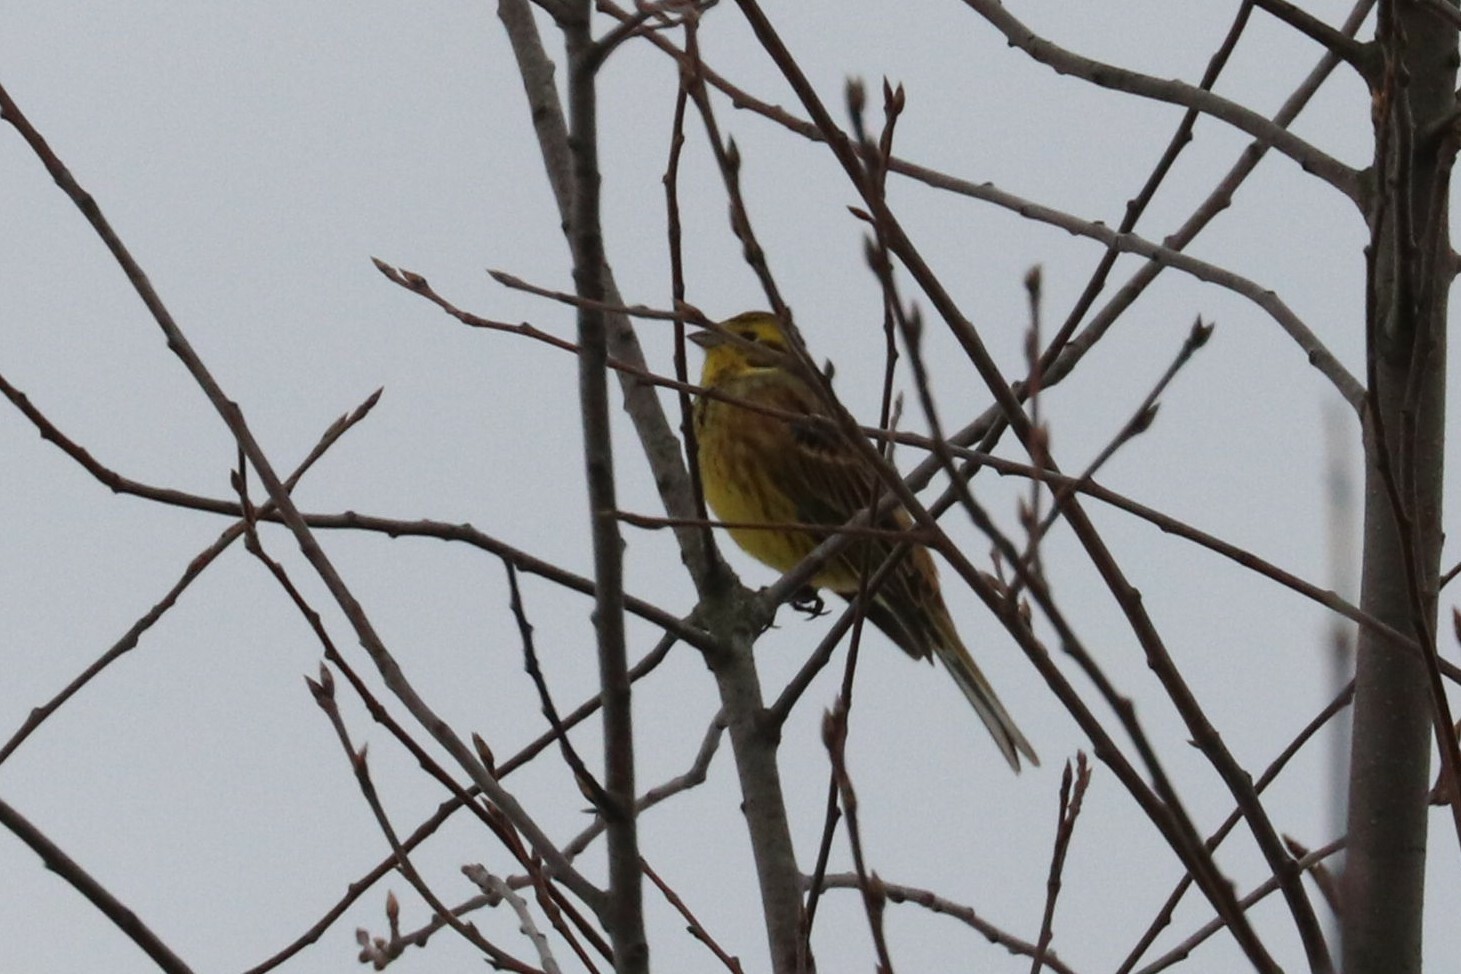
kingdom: Animalia
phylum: Chordata
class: Aves
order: Passeriformes
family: Emberizidae
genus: Emberiza
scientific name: Emberiza citrinella
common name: Yellowhammer
